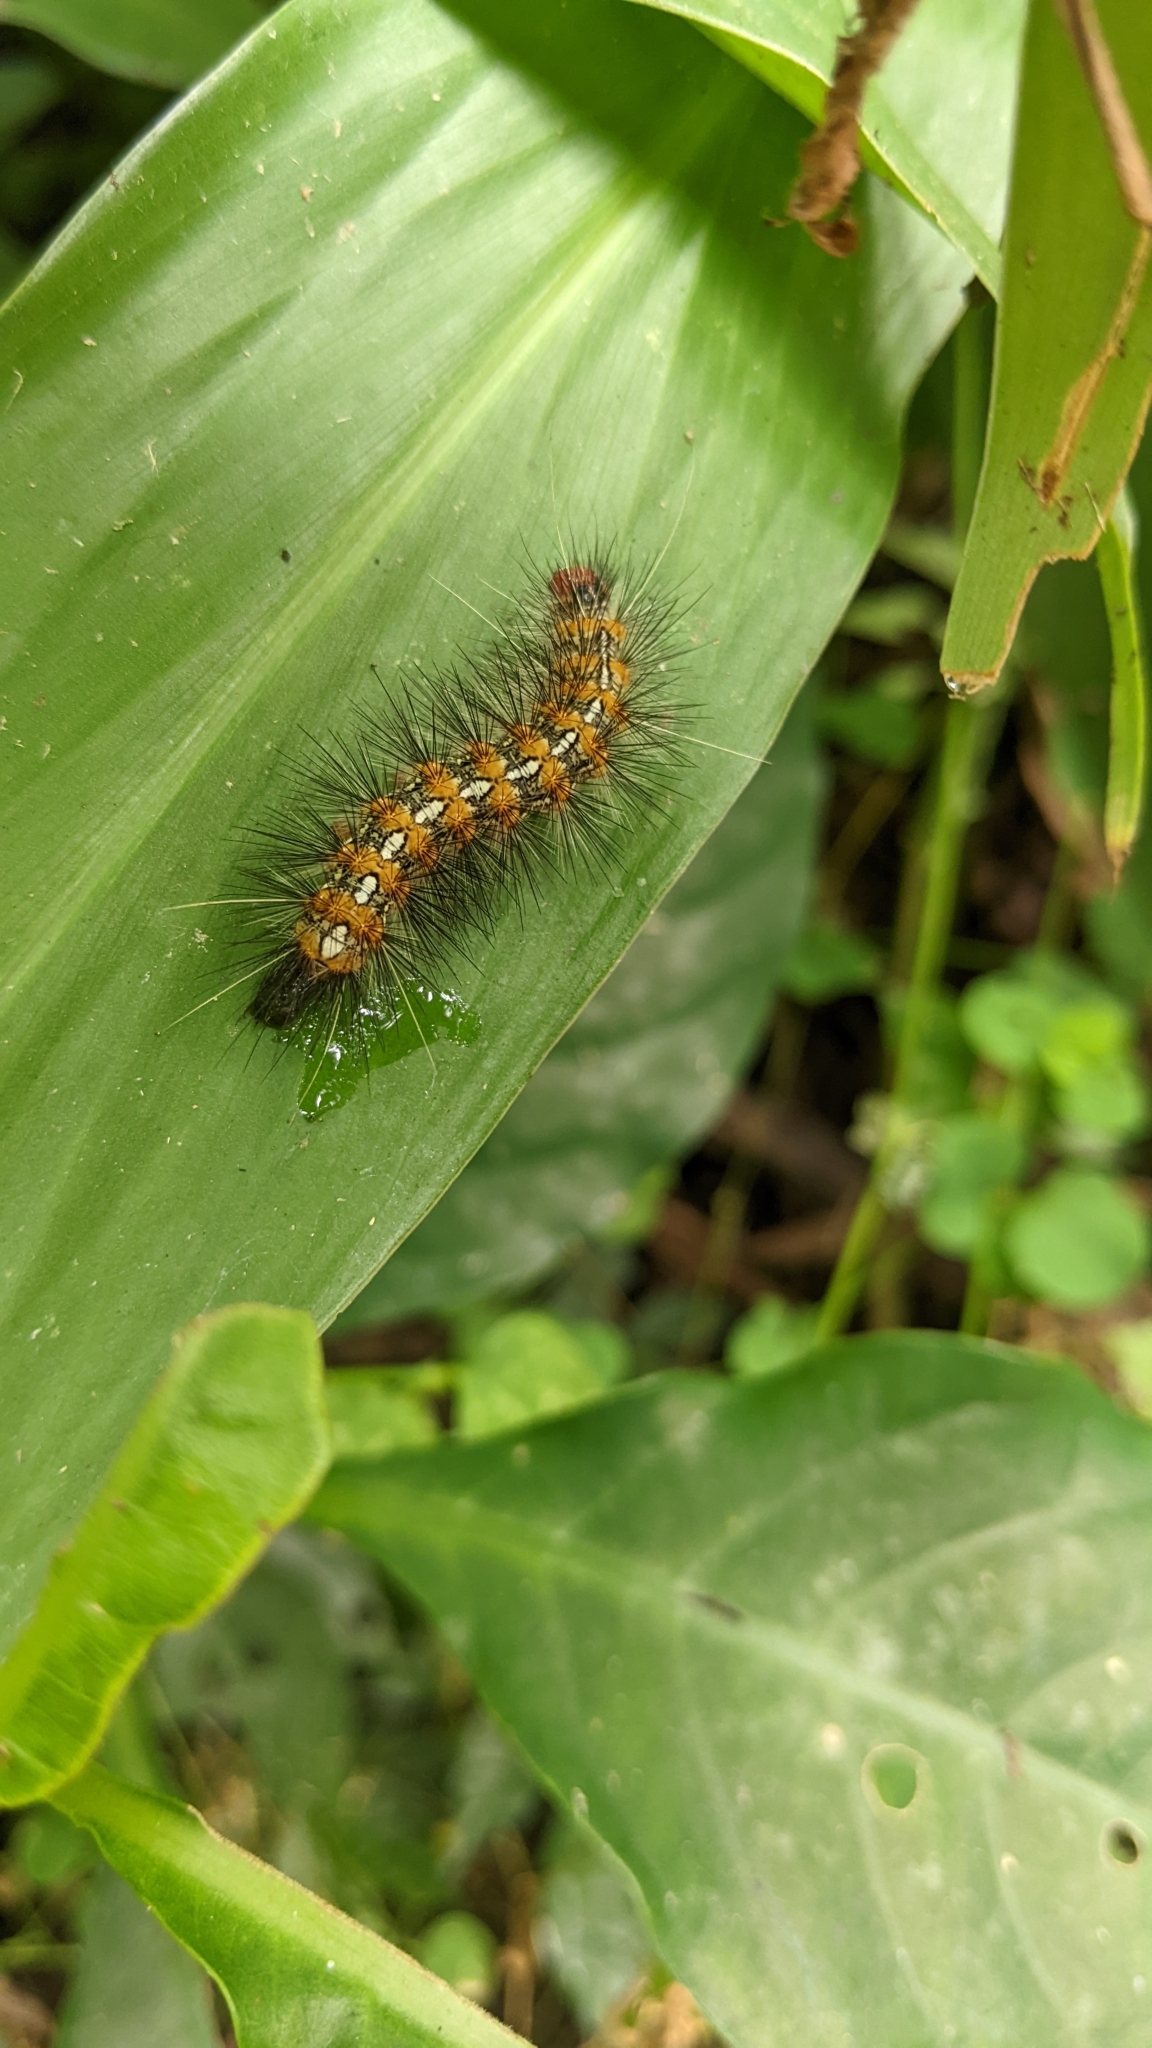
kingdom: Animalia
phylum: Arthropoda
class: Insecta
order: Lepidoptera
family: Erebidae
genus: Lemyra
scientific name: Lemyra imparilis
